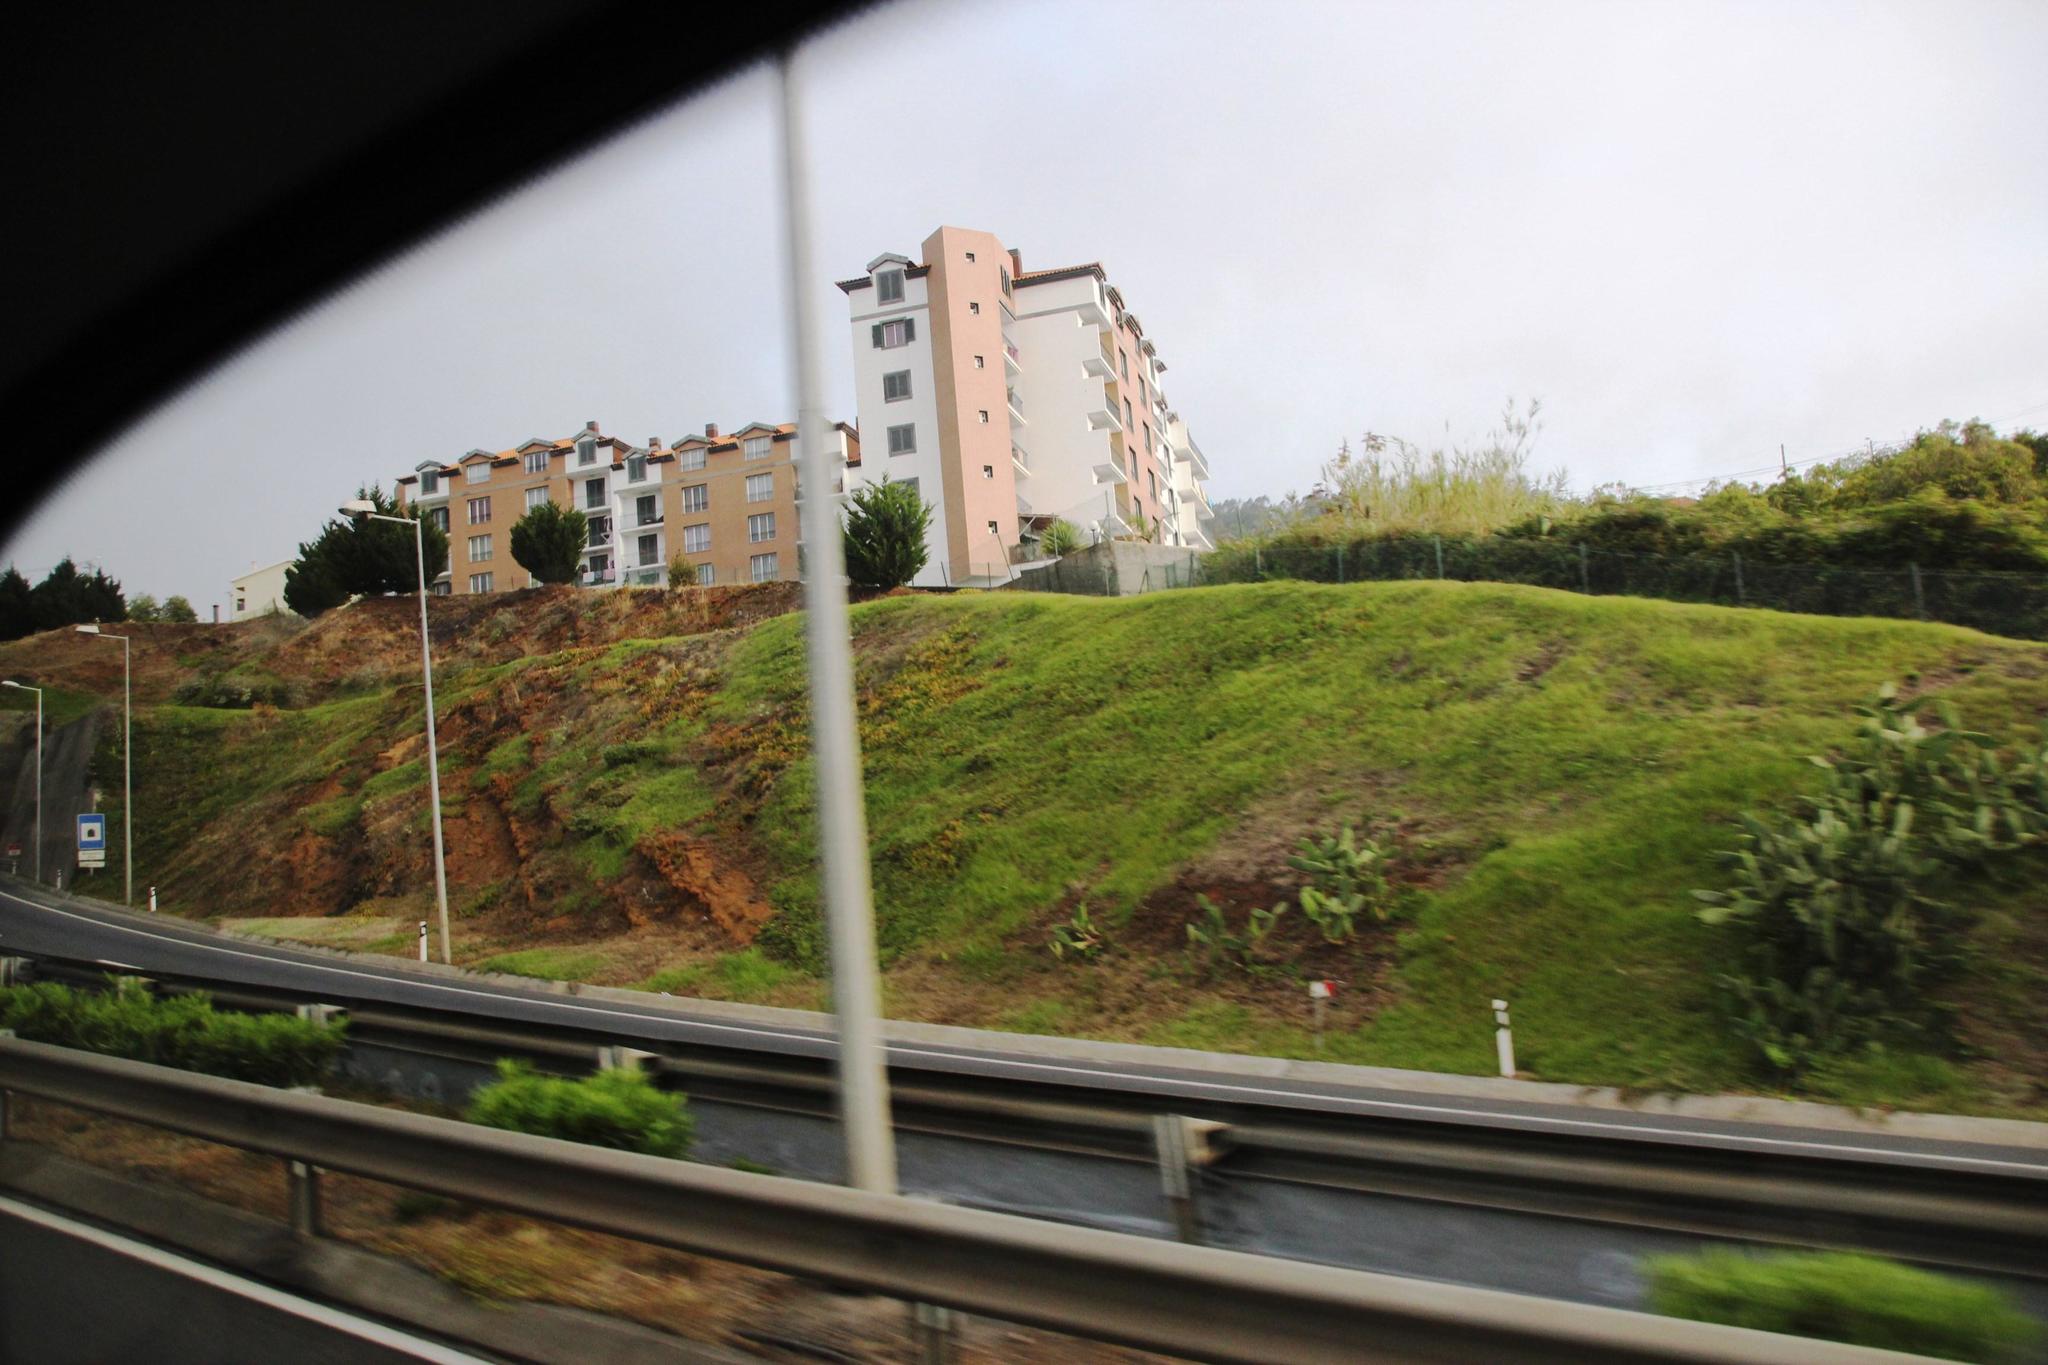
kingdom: Plantae
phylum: Tracheophyta
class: Magnoliopsida
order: Caryophyllales
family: Cactaceae
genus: Opuntia
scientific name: Opuntia ficus-indica
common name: Barbary fig
